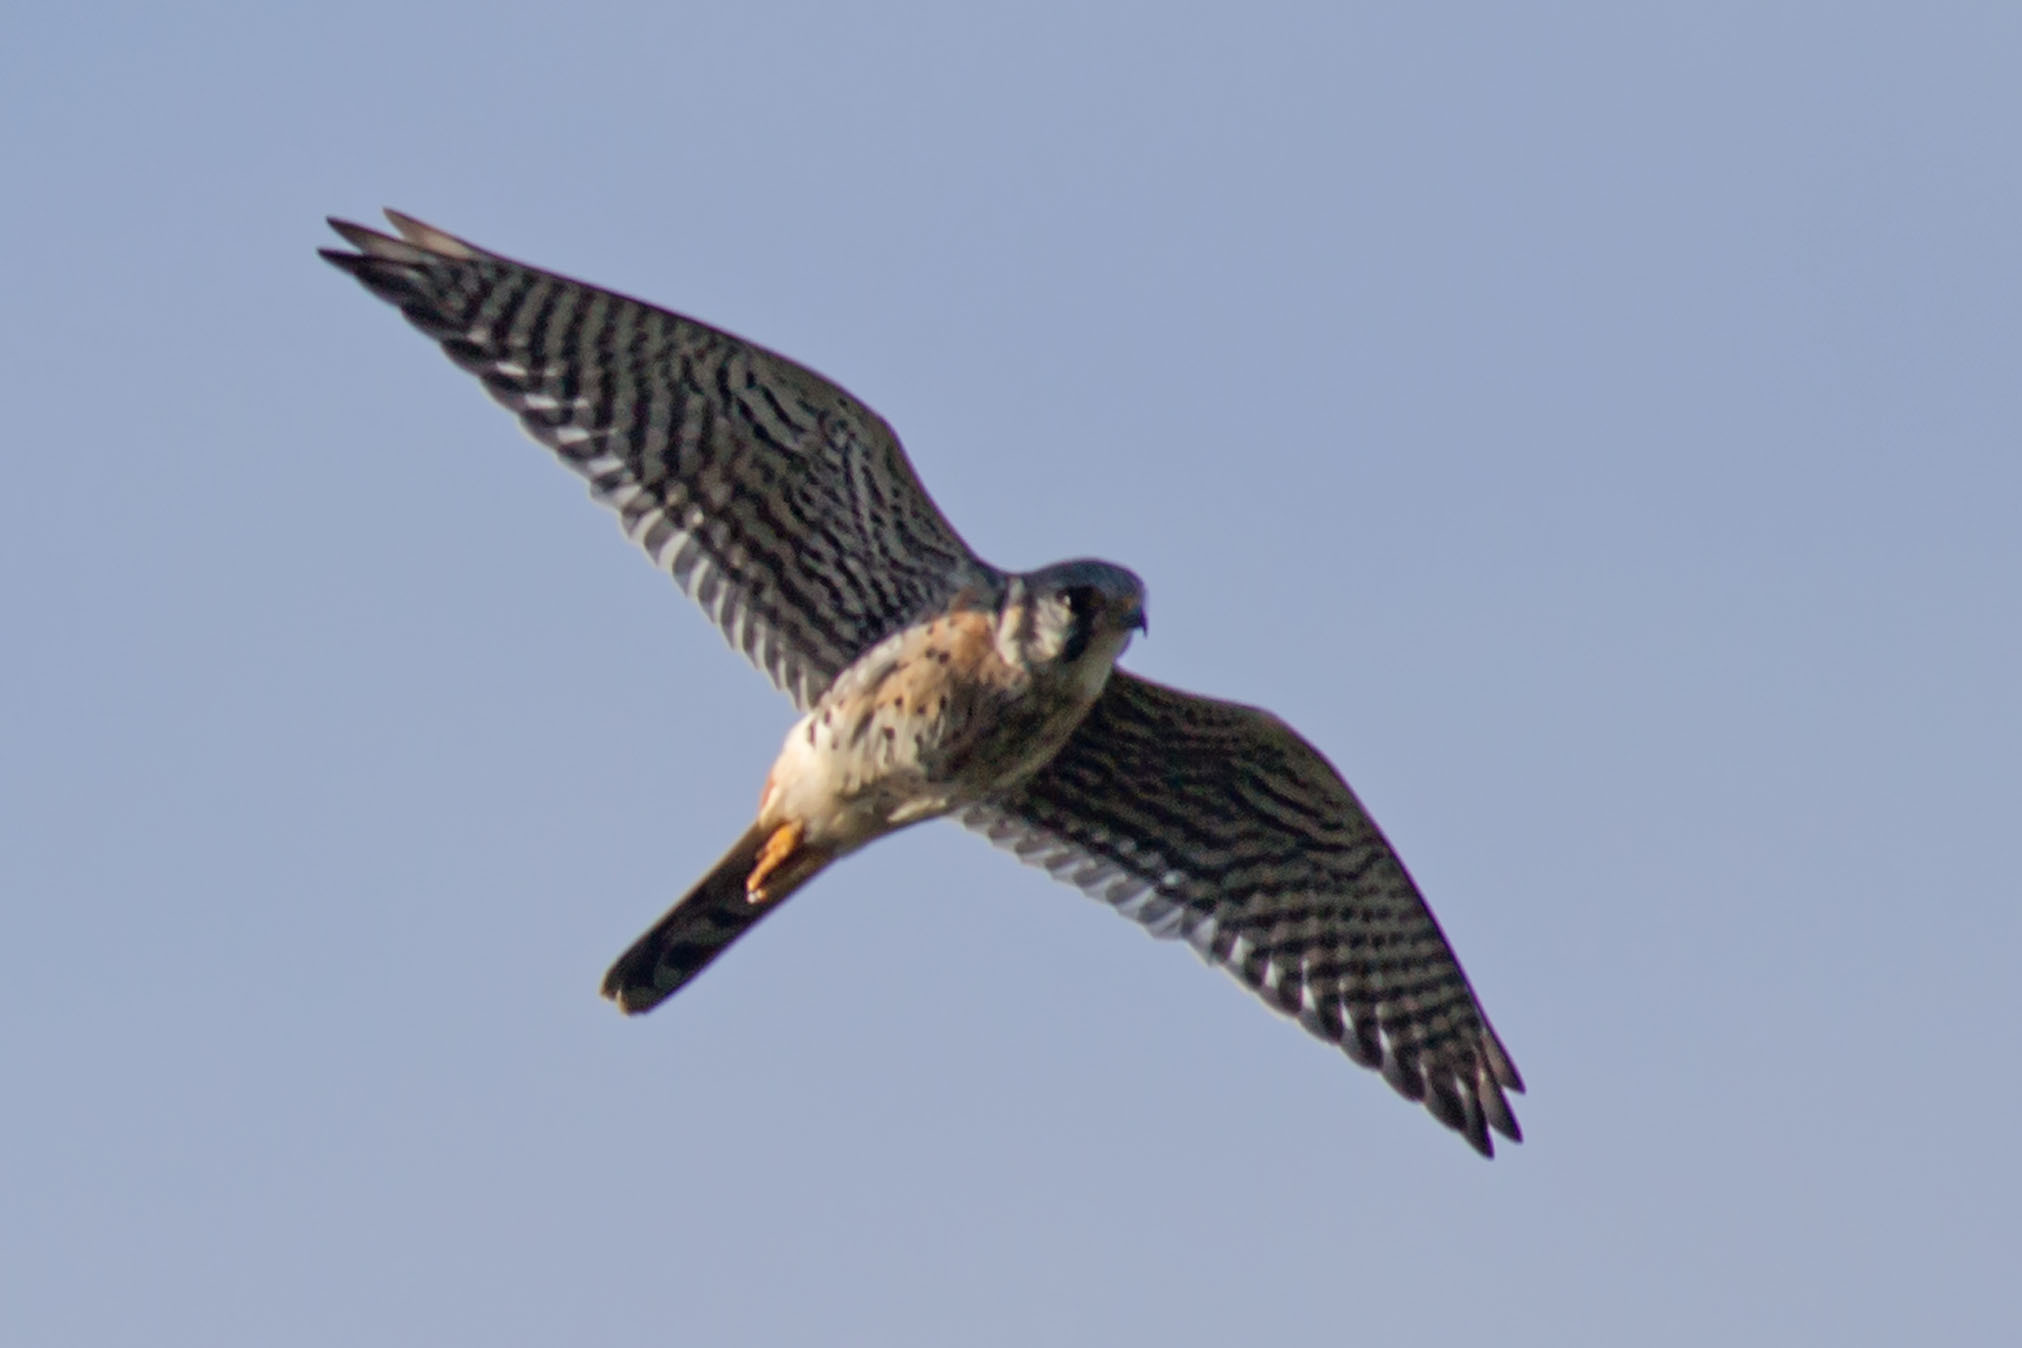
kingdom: Animalia
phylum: Chordata
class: Aves
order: Falconiformes
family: Falconidae
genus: Falco
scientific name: Falco sparverius
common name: American kestrel
